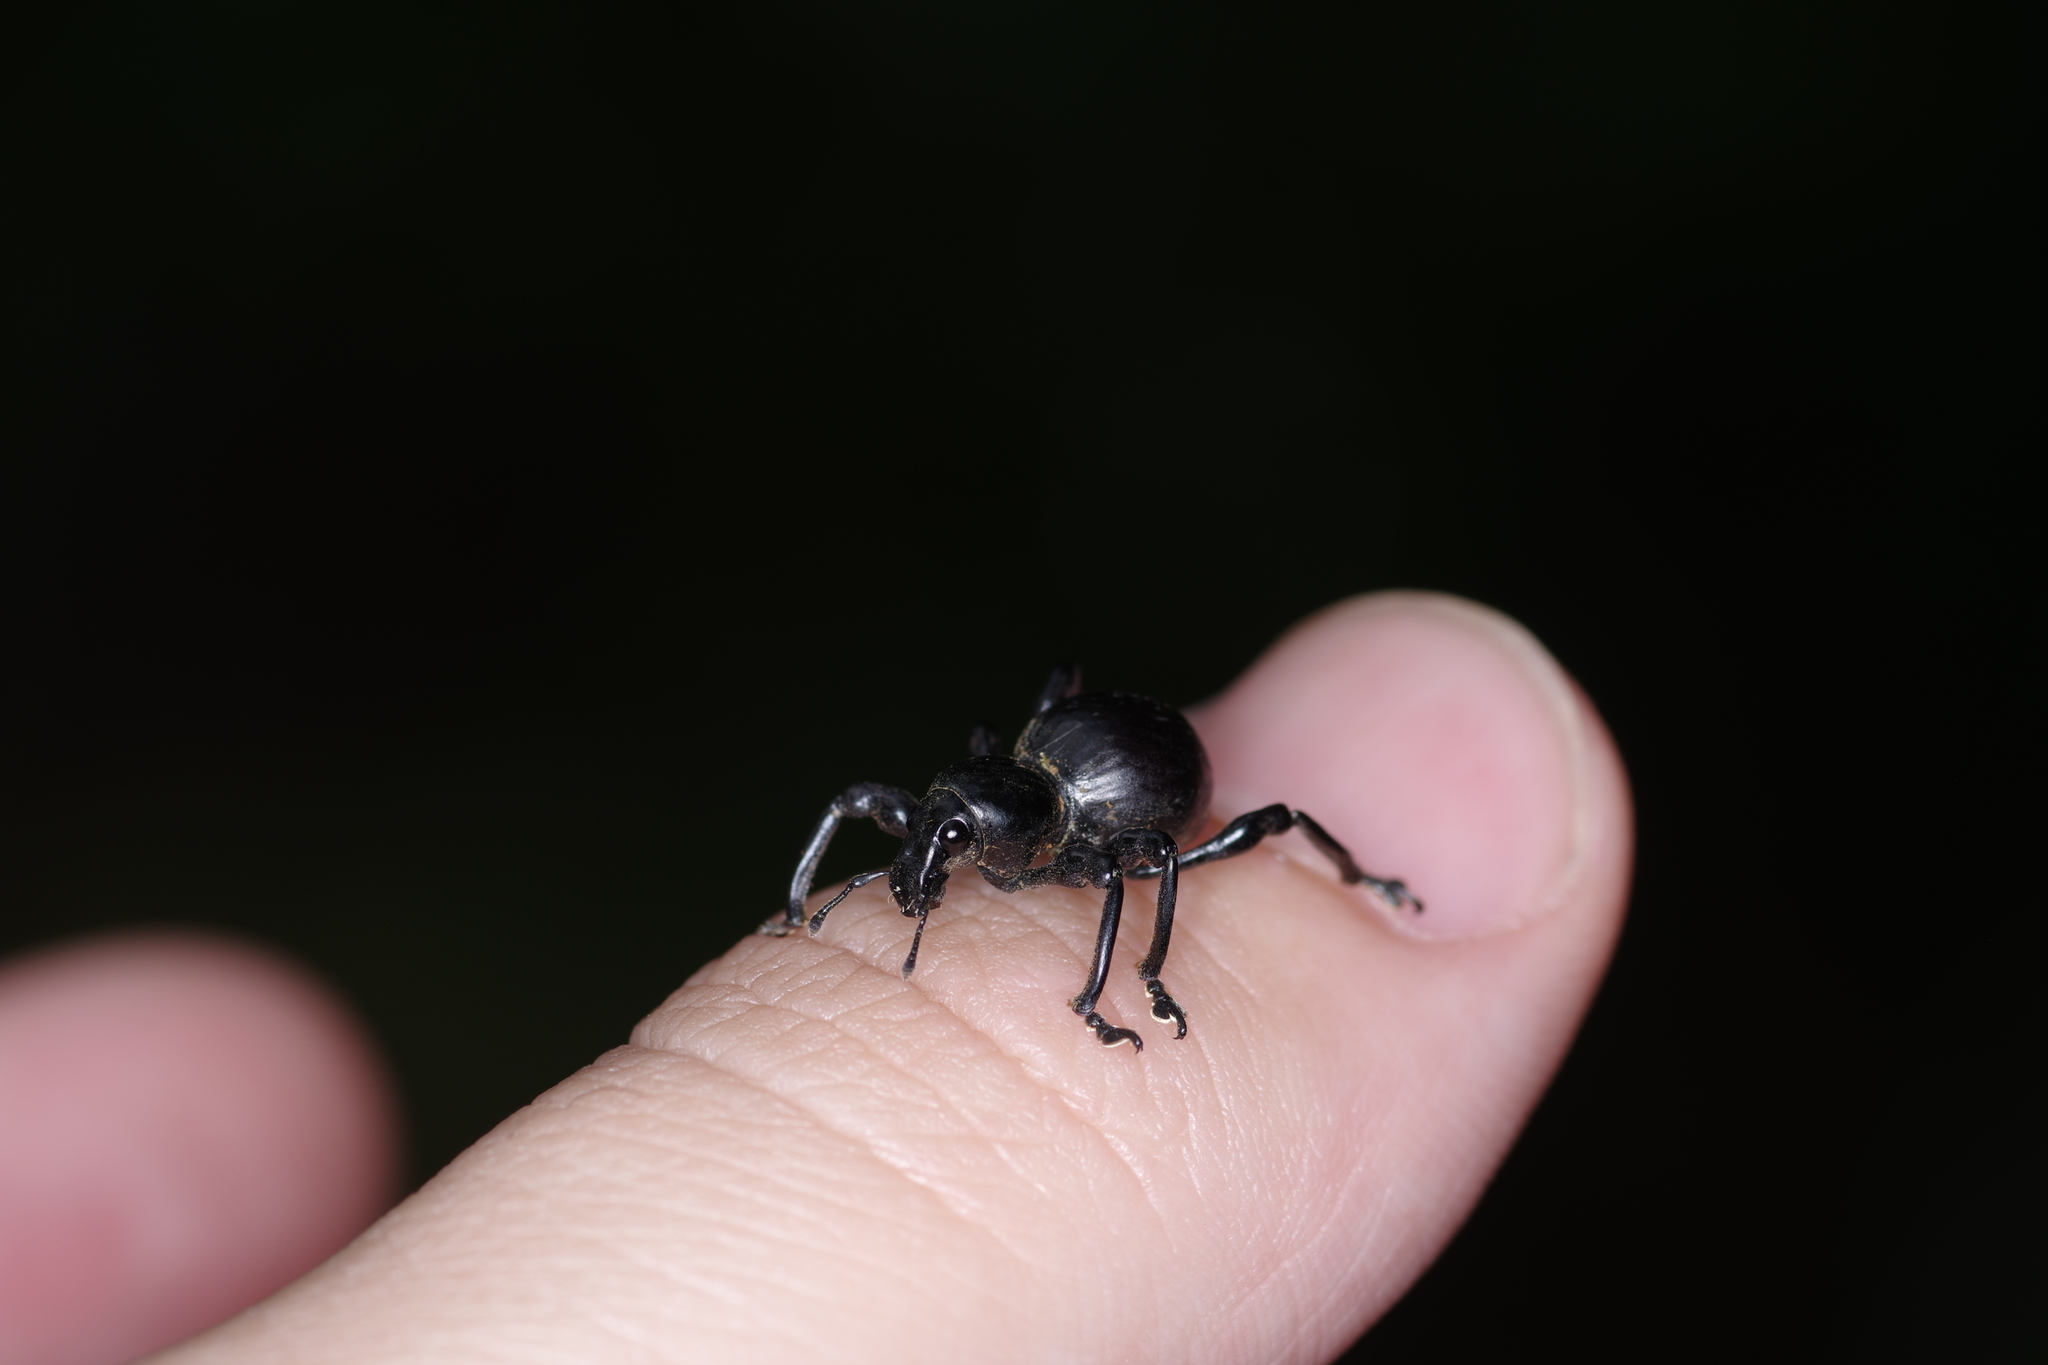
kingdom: Animalia
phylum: Arthropoda
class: Insecta
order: Coleoptera
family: Curculionidae
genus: Pachyrhynchus
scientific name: Pachyrhynchus infernalis
